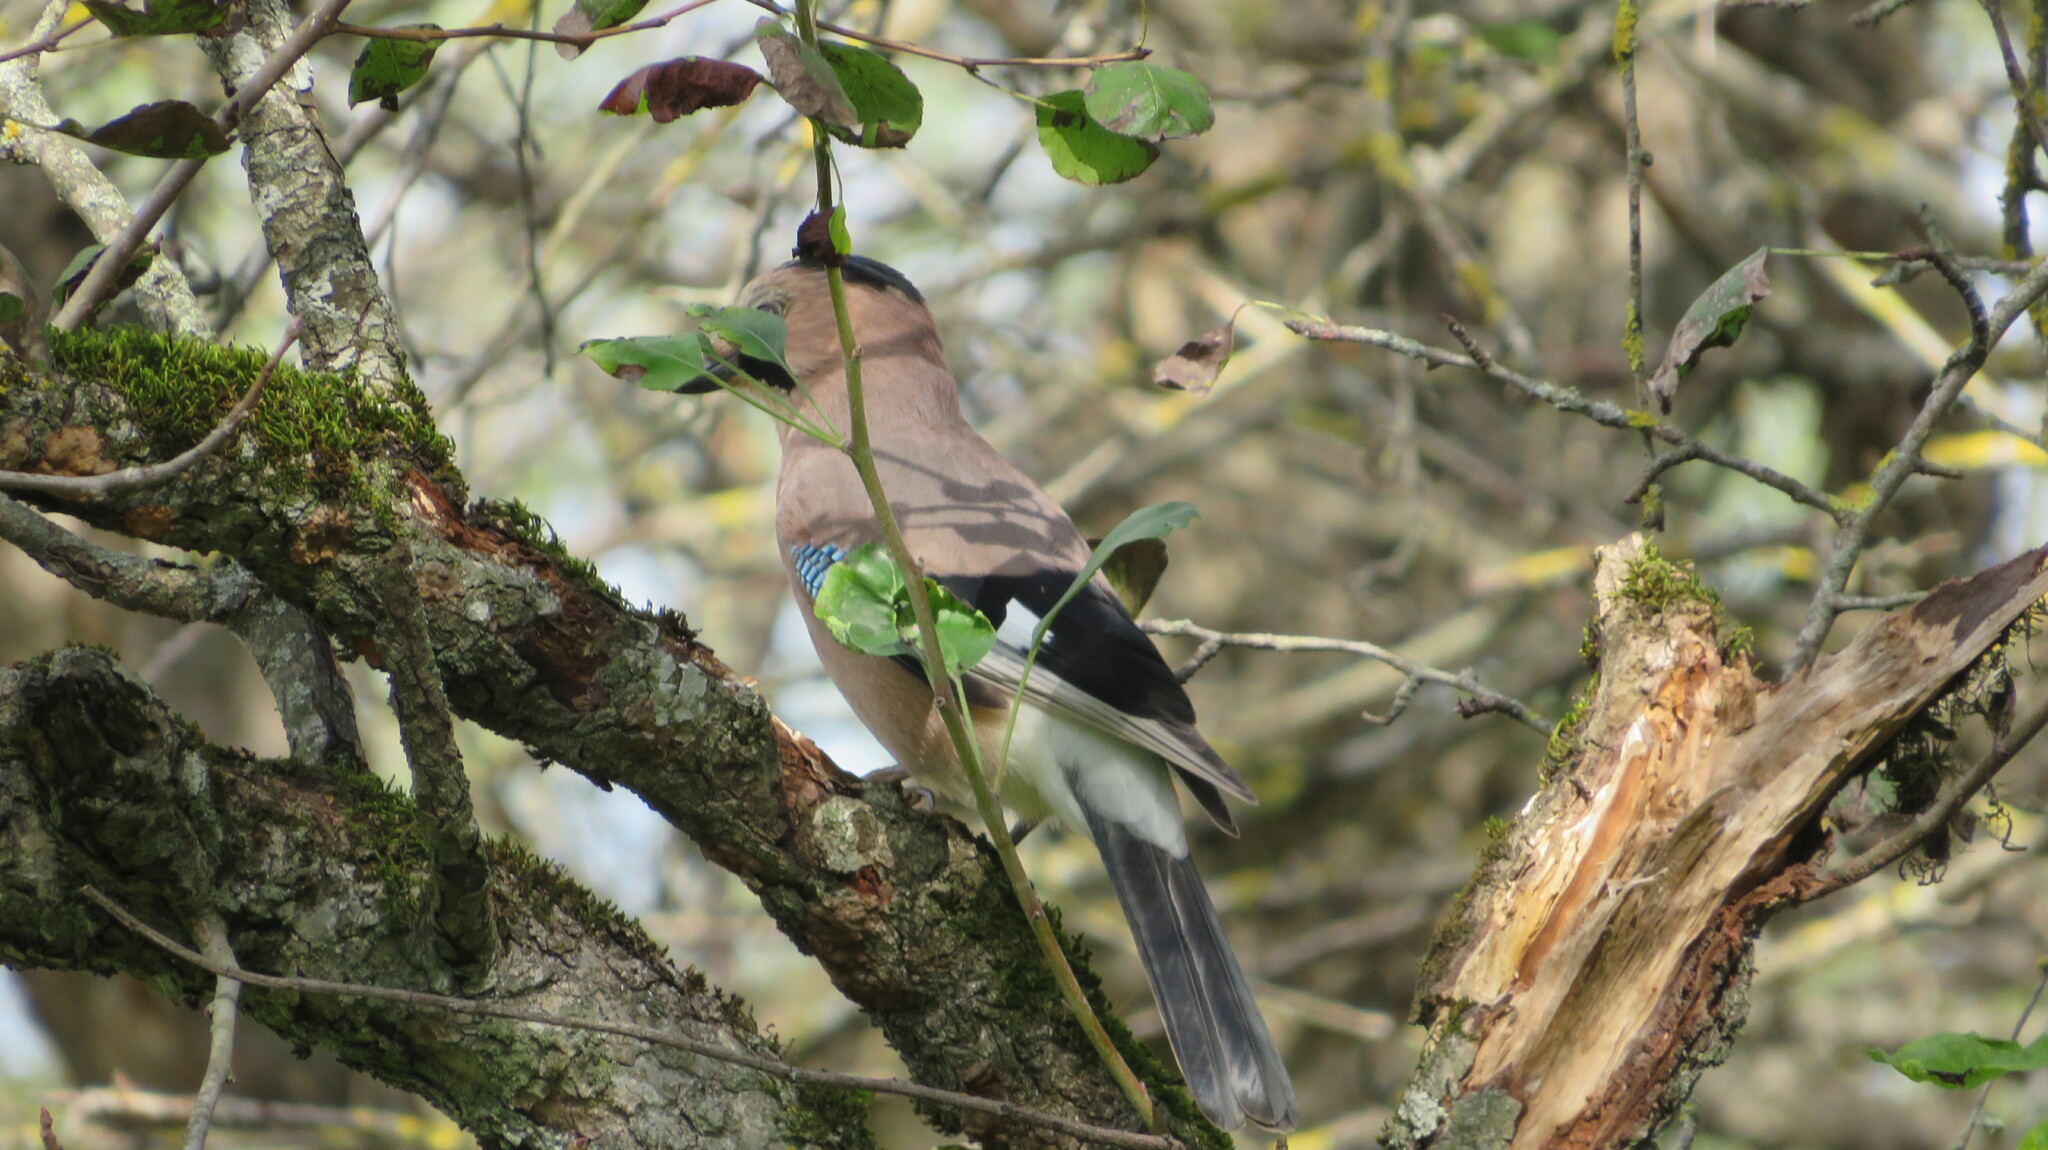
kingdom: Animalia
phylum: Chordata
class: Aves
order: Passeriformes
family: Corvidae
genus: Garrulus
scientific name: Garrulus glandarius
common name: Eurasian jay
